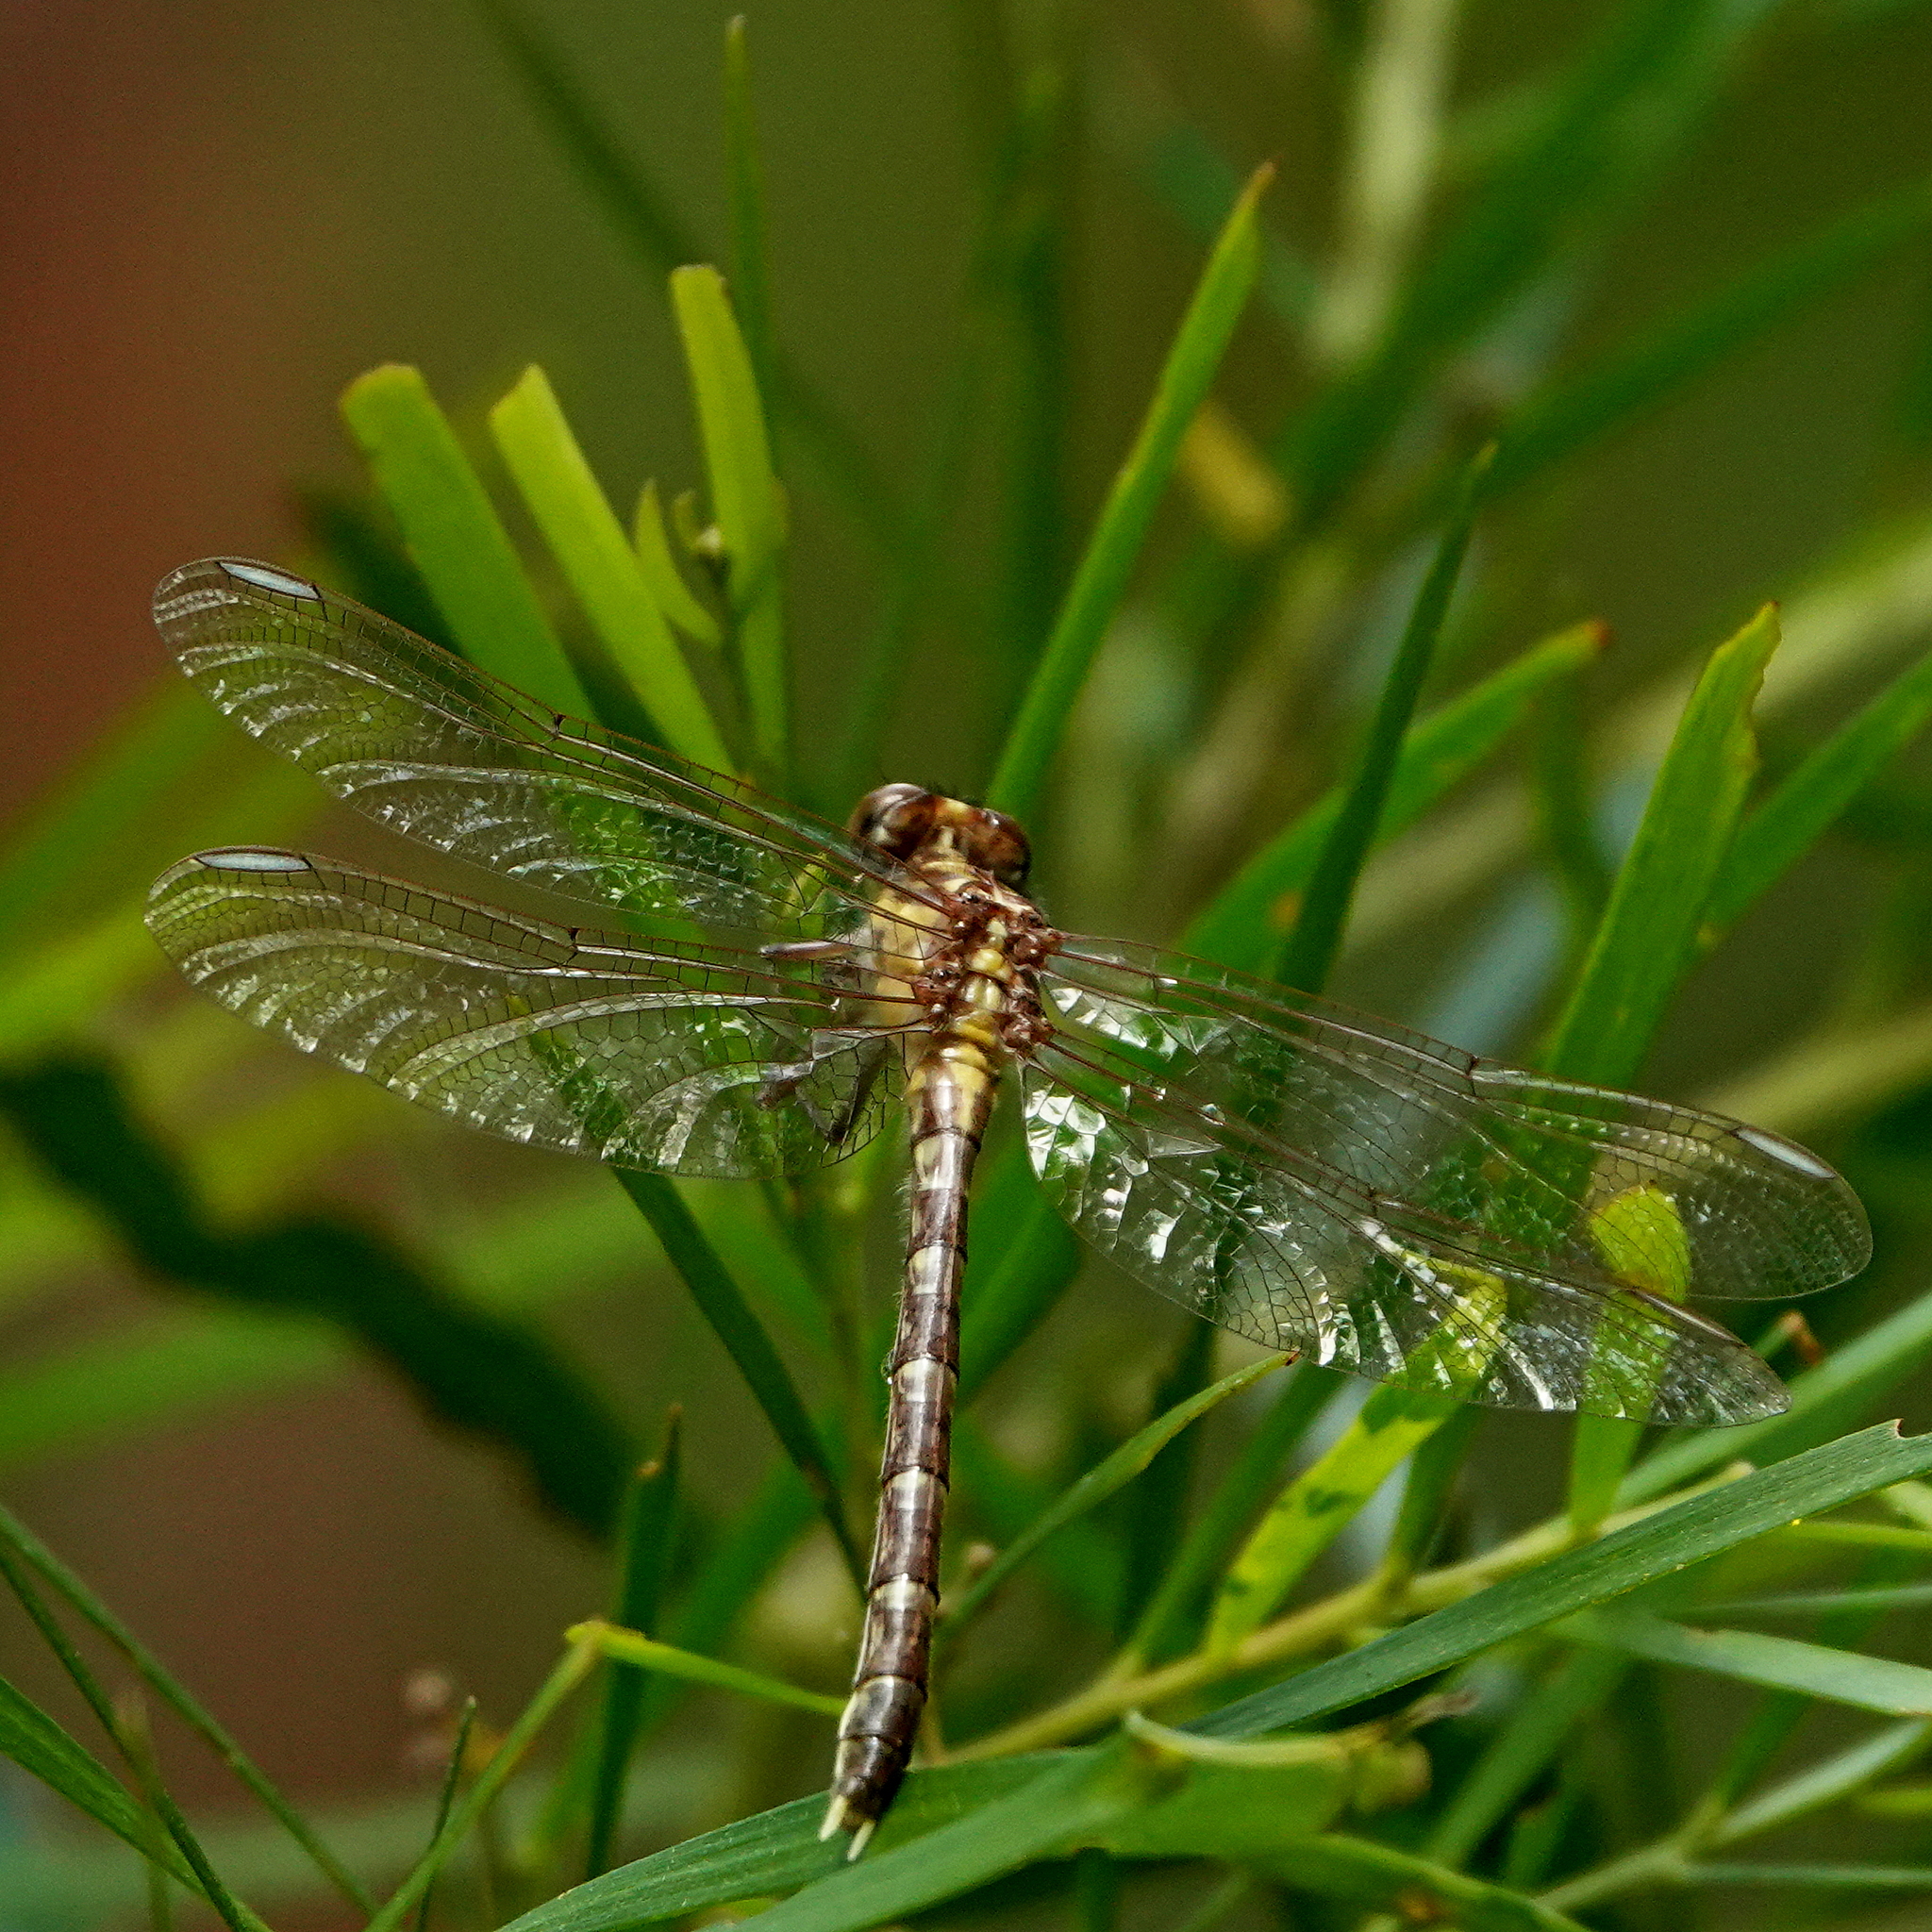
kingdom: Animalia
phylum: Arthropoda
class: Insecta
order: Odonata
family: Gomphidae
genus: Hemigomphus
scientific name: Hemigomphus gouldii
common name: Southern vicetail
